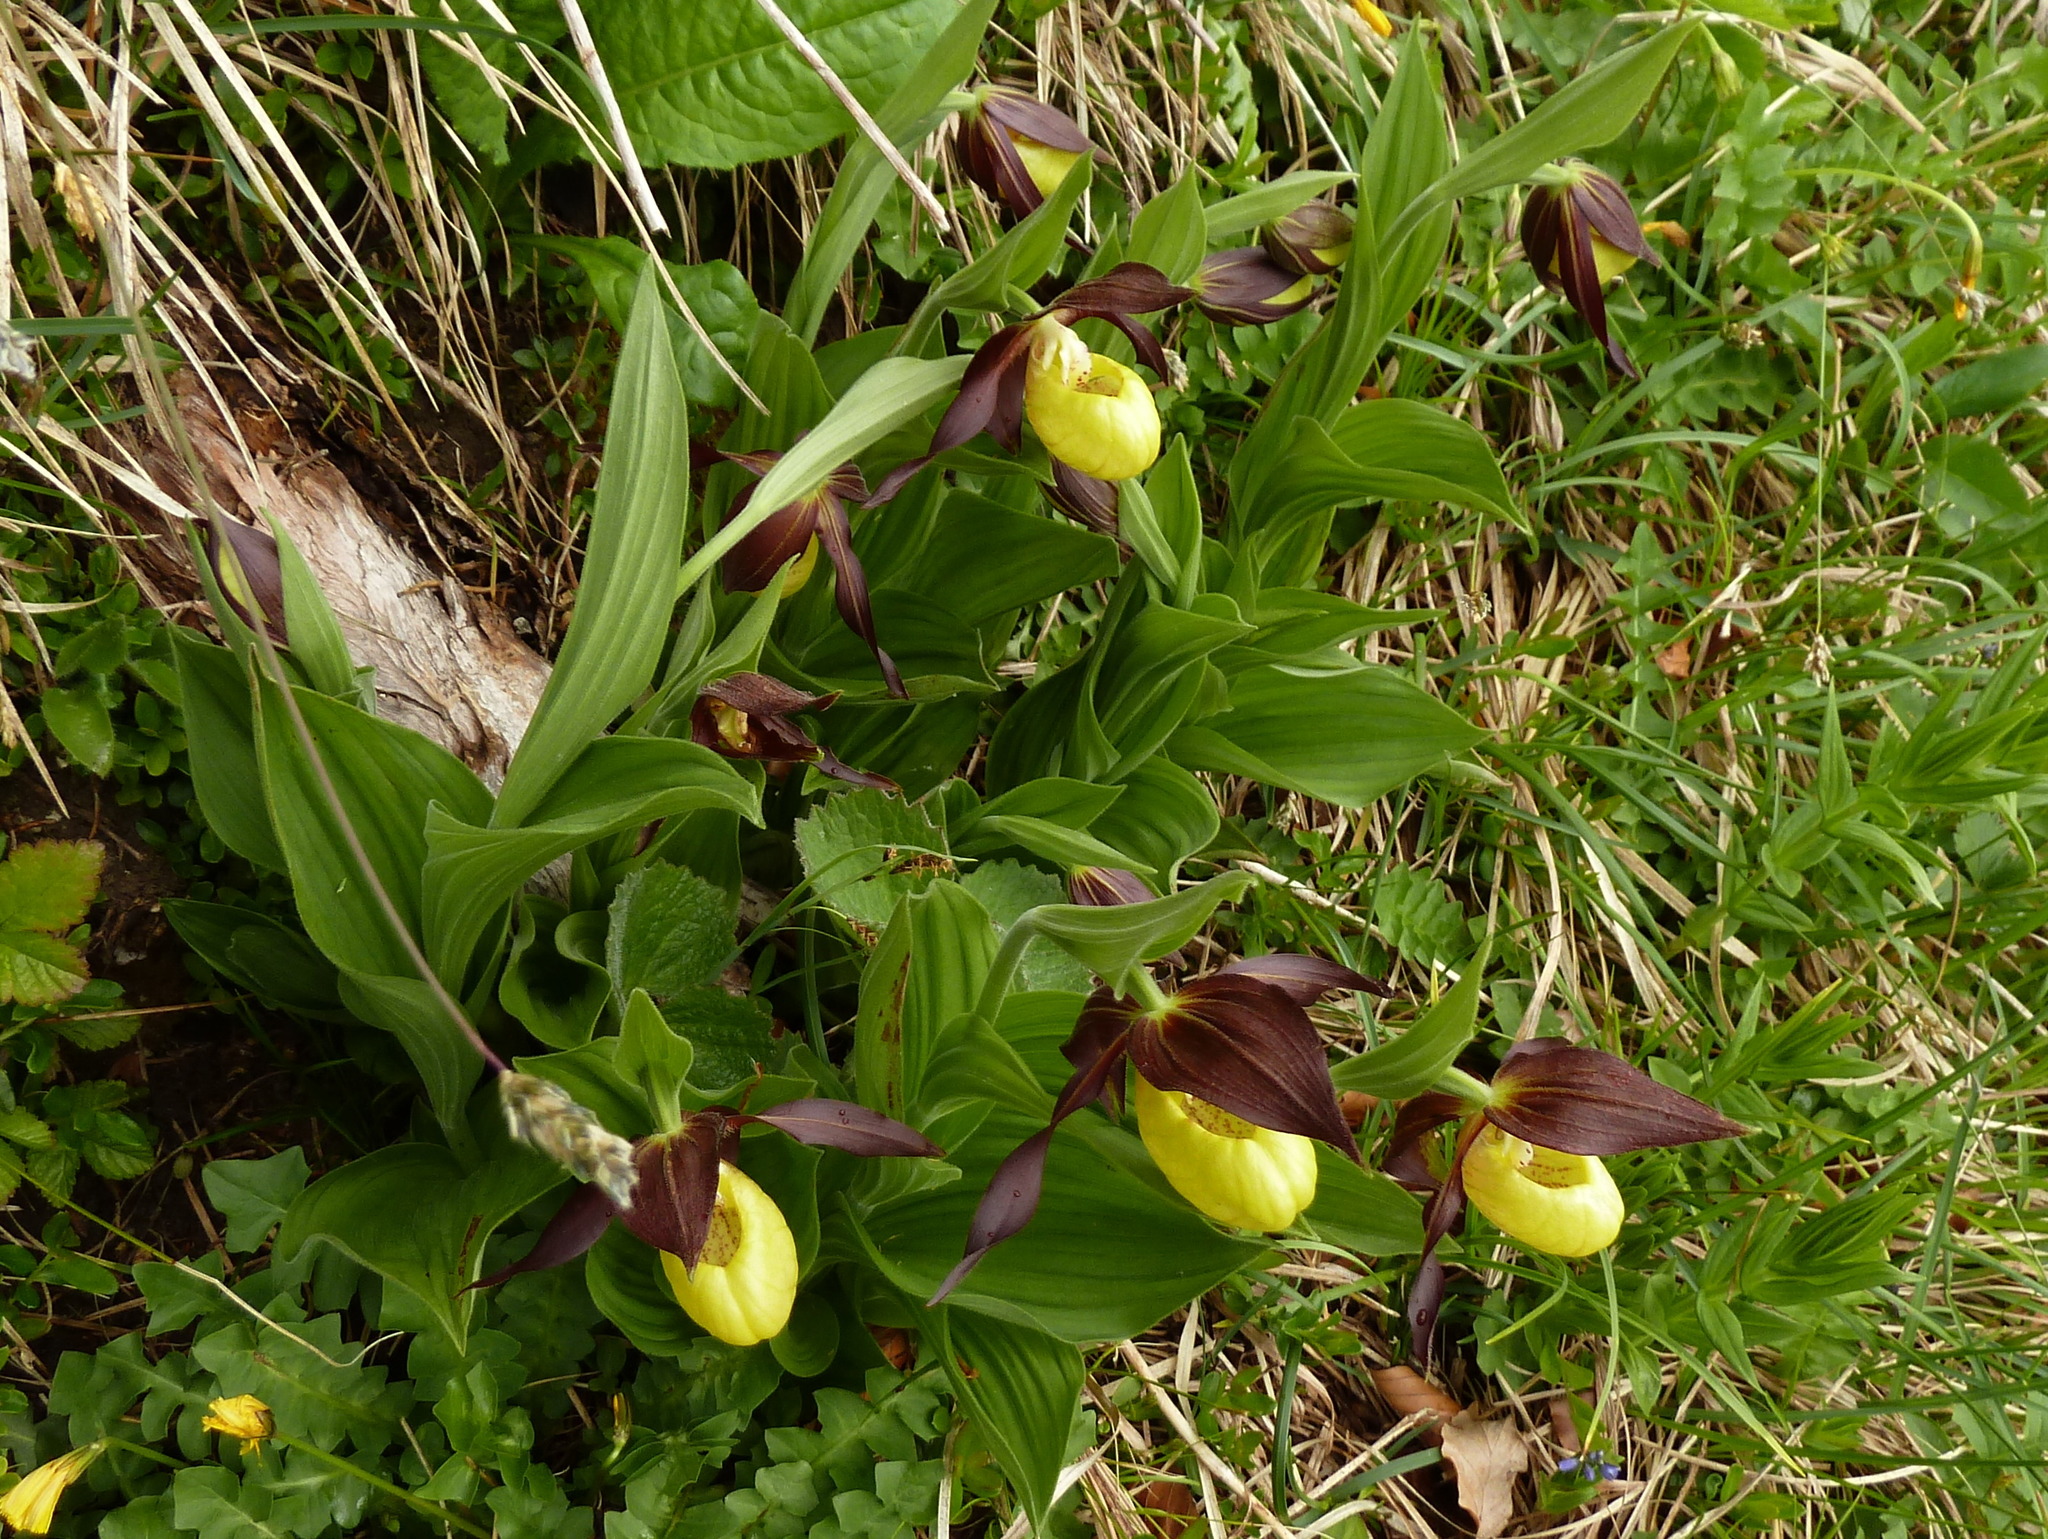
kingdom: Plantae
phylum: Tracheophyta
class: Liliopsida
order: Asparagales
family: Orchidaceae
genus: Cypripedium
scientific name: Cypripedium calceolus
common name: Lady's-slipper
